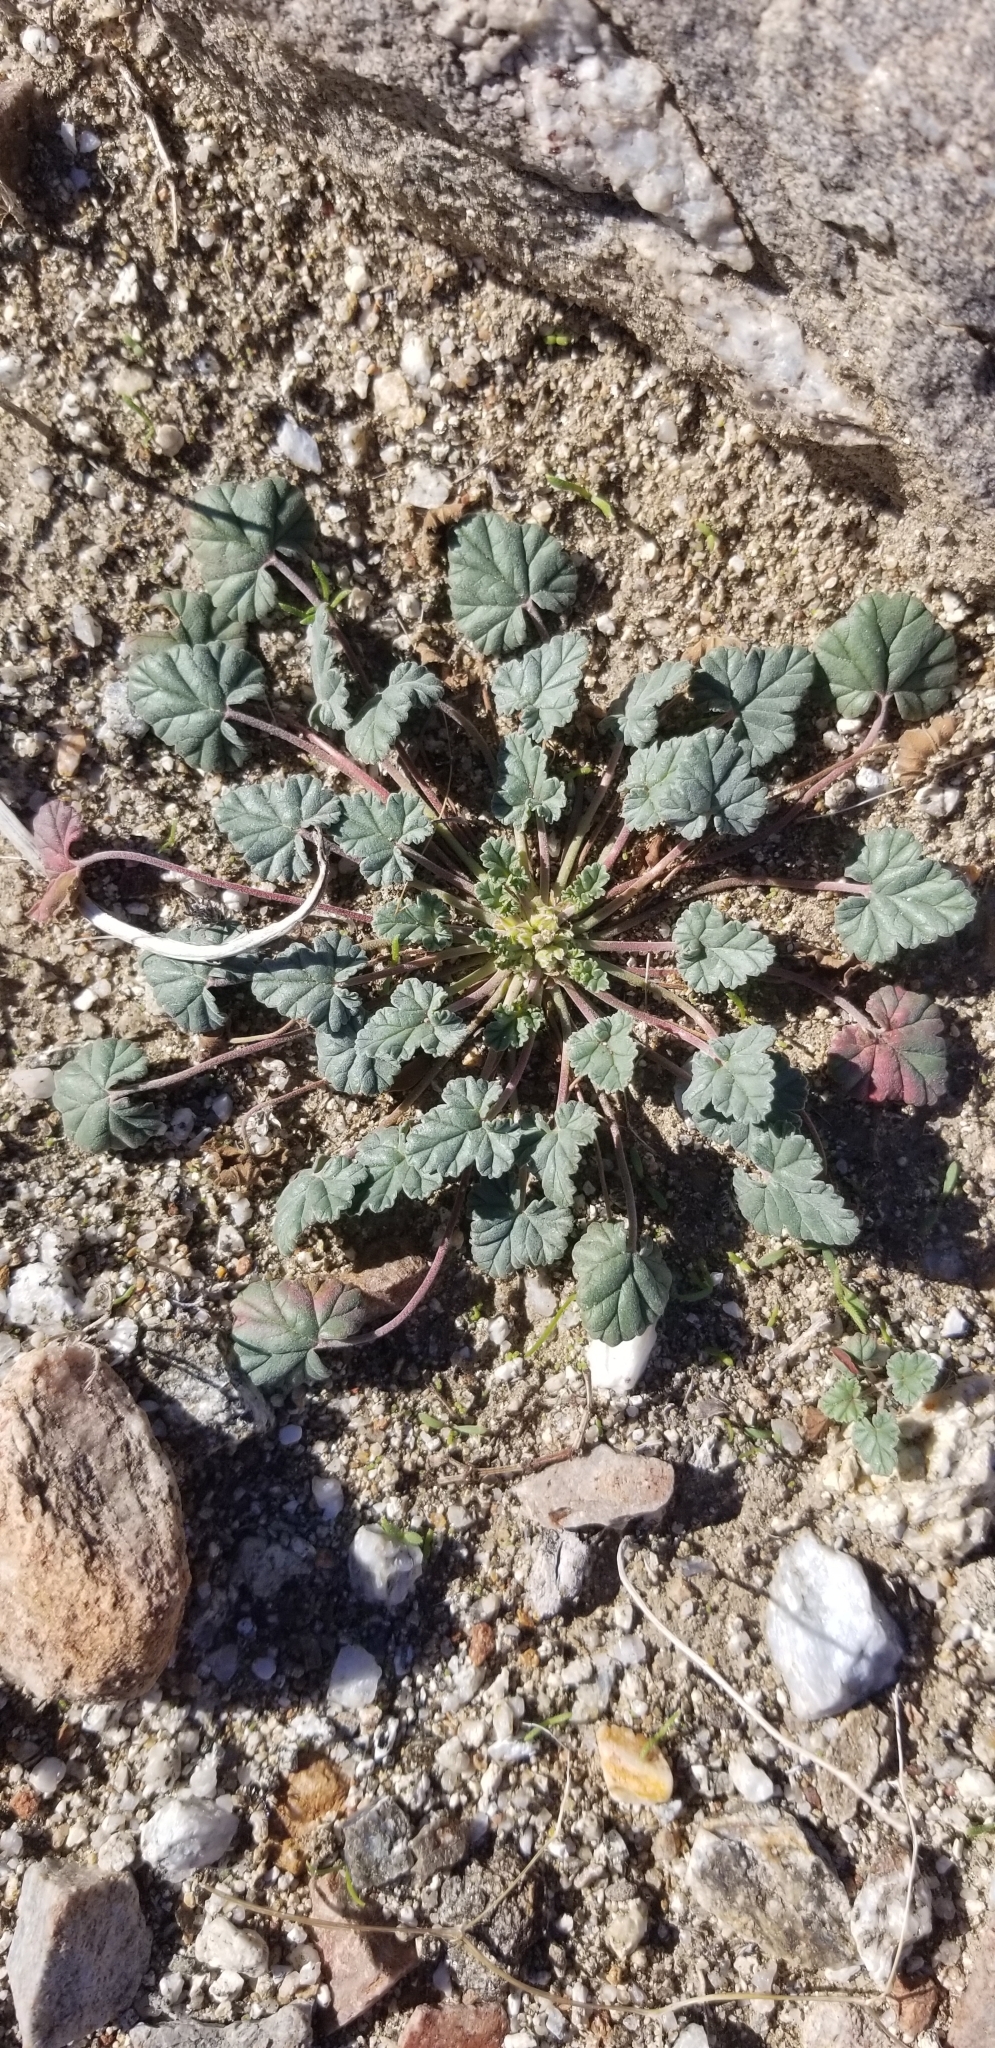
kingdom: Plantae
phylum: Tracheophyta
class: Magnoliopsida
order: Geraniales
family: Geraniaceae
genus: Erodium
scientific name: Erodium texanum
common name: Texas stork's-bill
